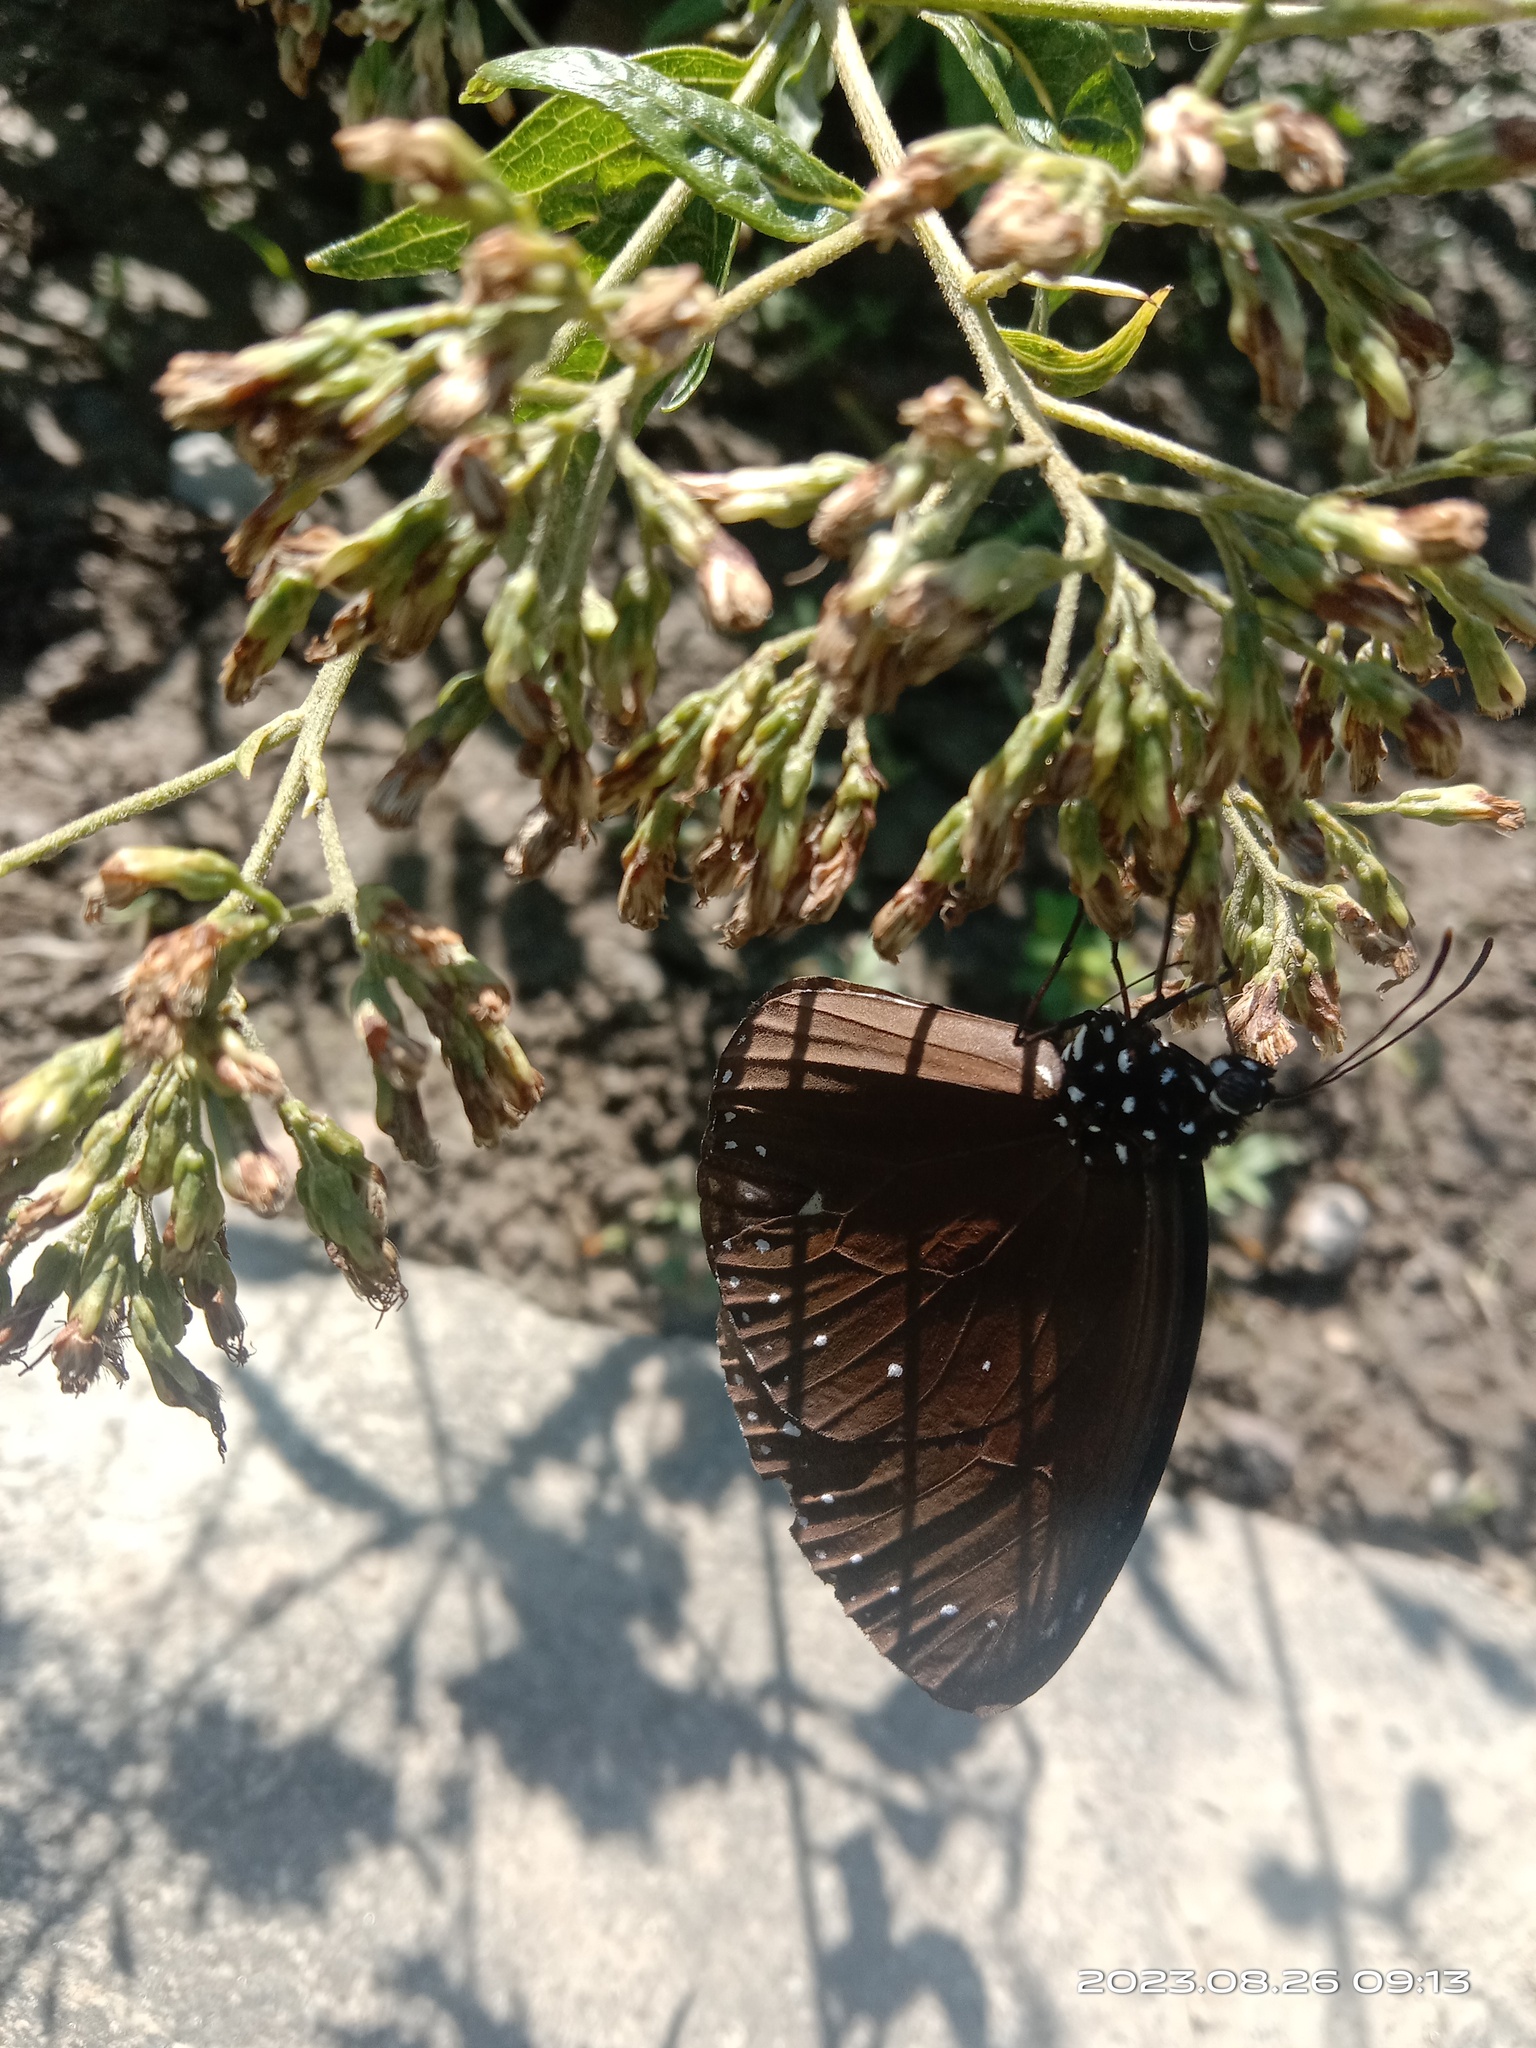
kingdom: Animalia
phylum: Arthropoda
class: Insecta
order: Lepidoptera
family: Nymphalidae
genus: Euploea
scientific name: Euploea tulliolus
